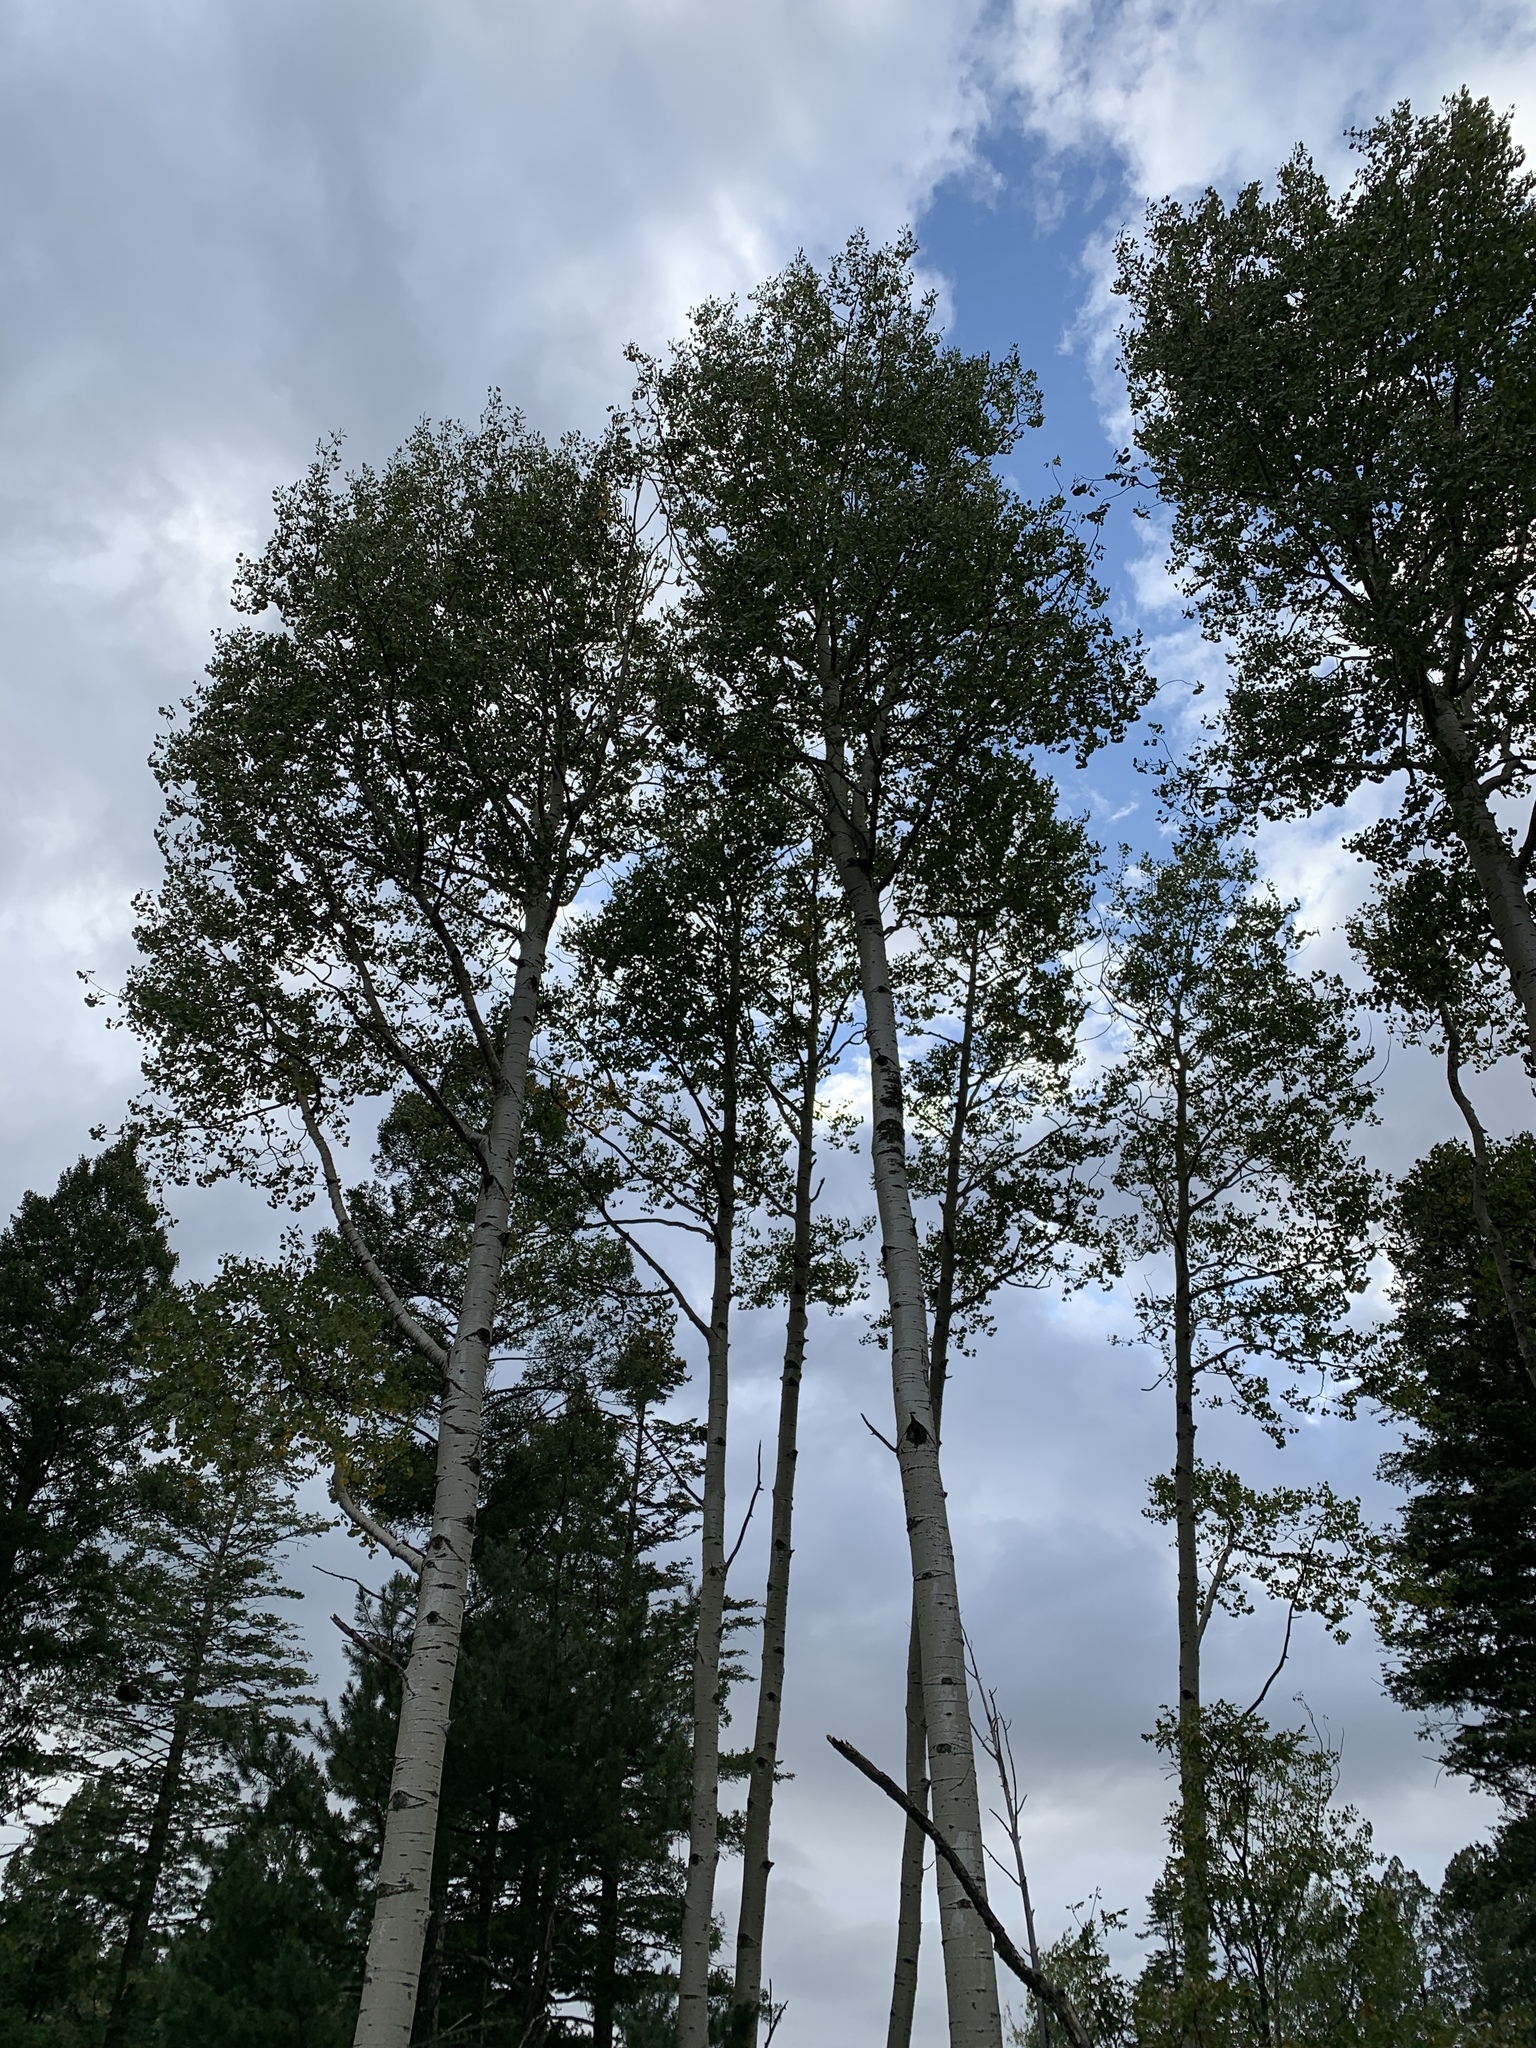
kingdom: Plantae
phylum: Tracheophyta
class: Magnoliopsida
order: Malpighiales
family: Salicaceae
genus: Populus
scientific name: Populus tremuloides
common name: Quaking aspen
